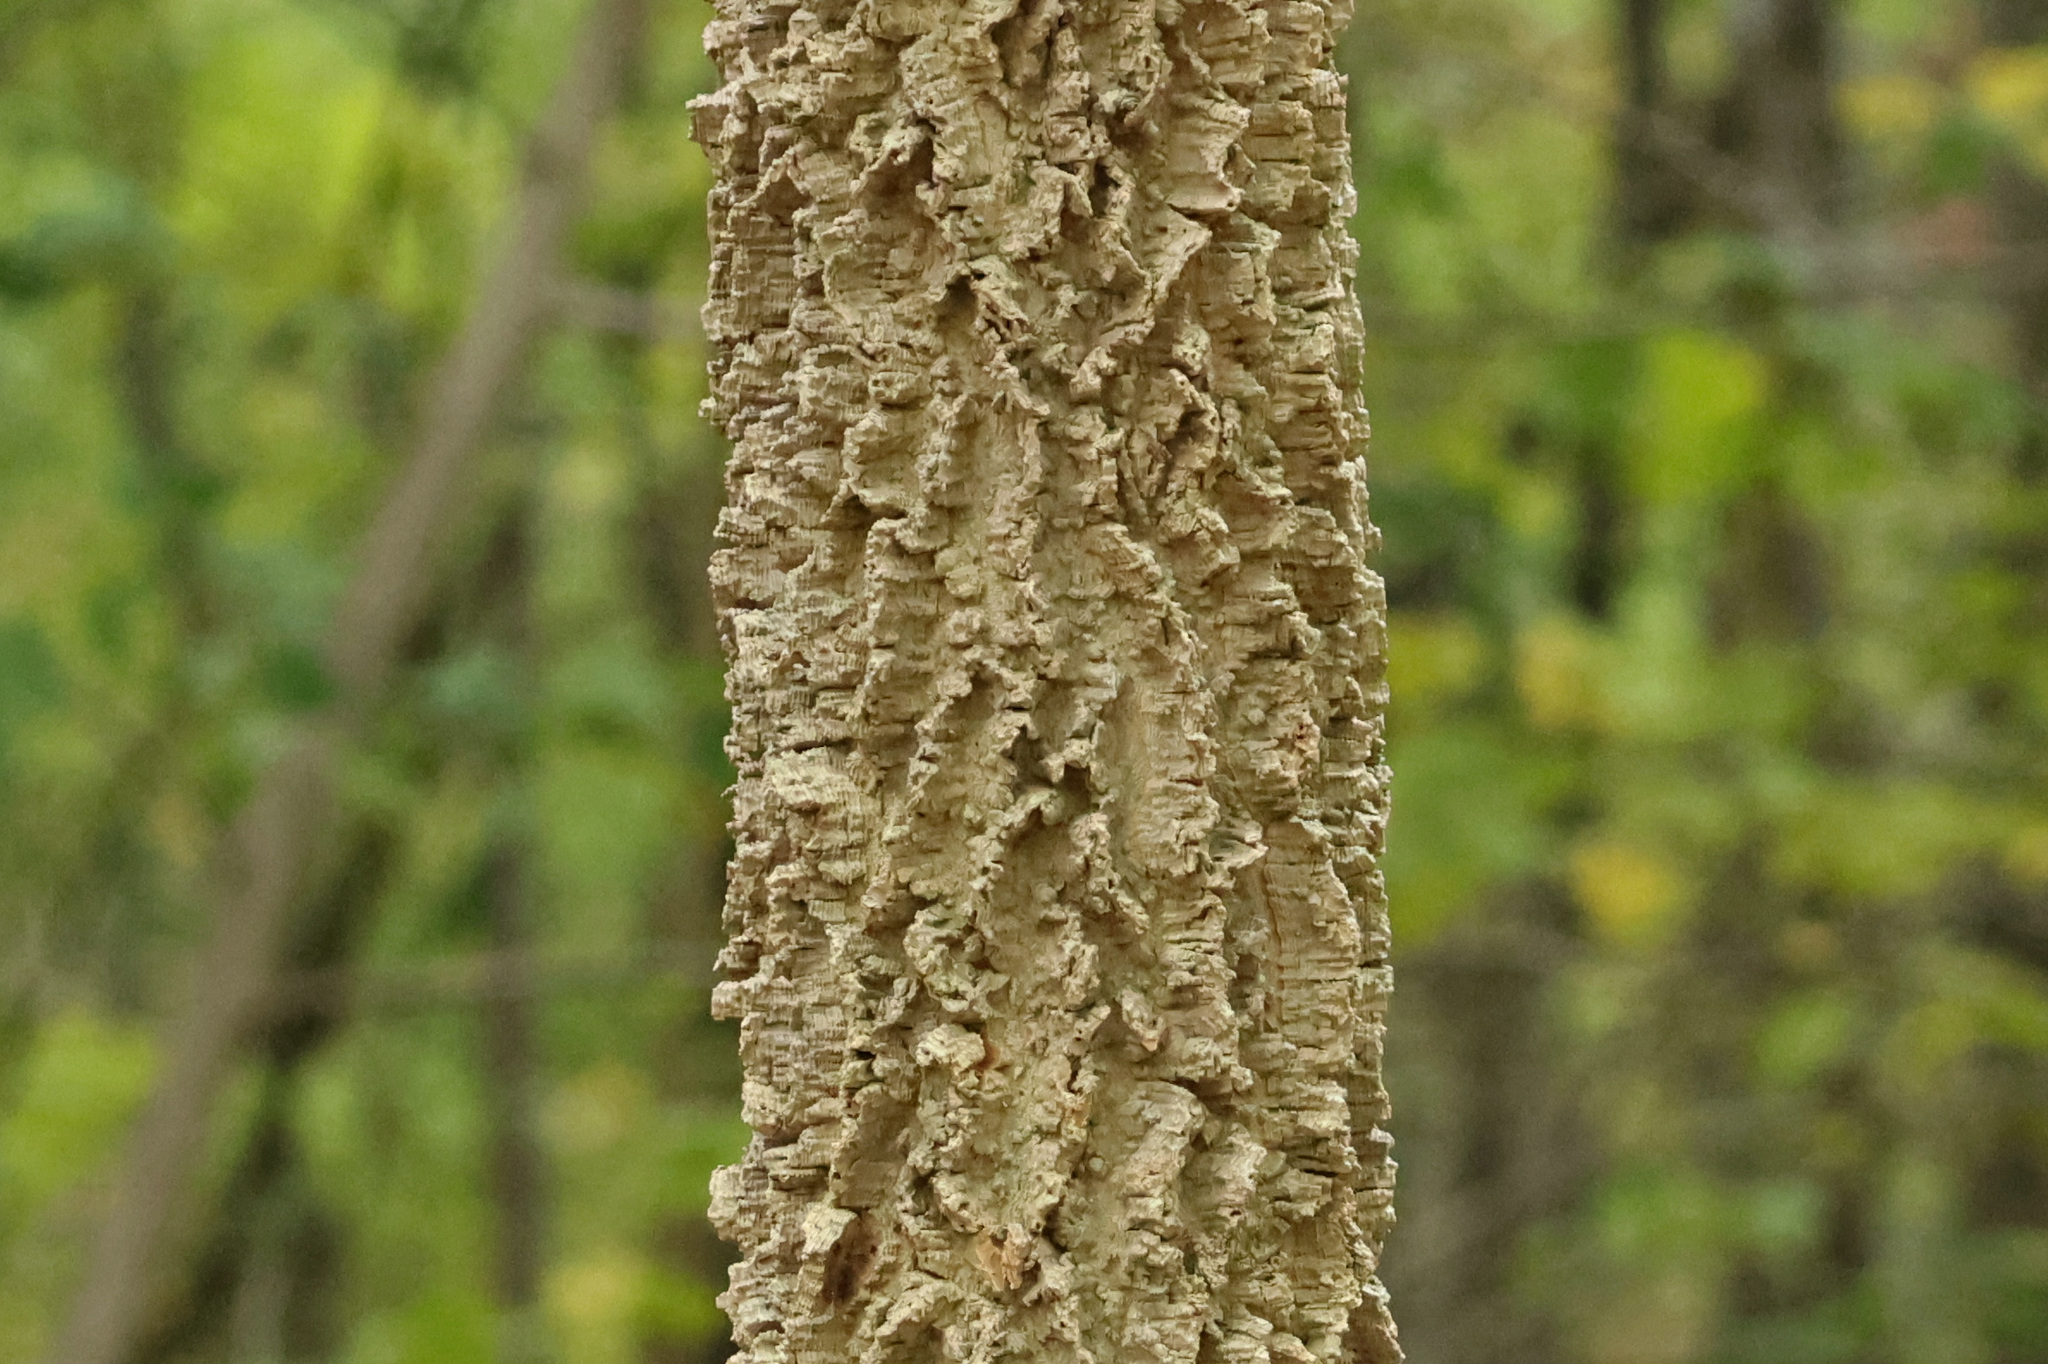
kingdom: Plantae
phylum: Tracheophyta
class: Magnoliopsida
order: Rosales
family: Cannabaceae
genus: Celtis
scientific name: Celtis occidentalis
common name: Common hackberry
